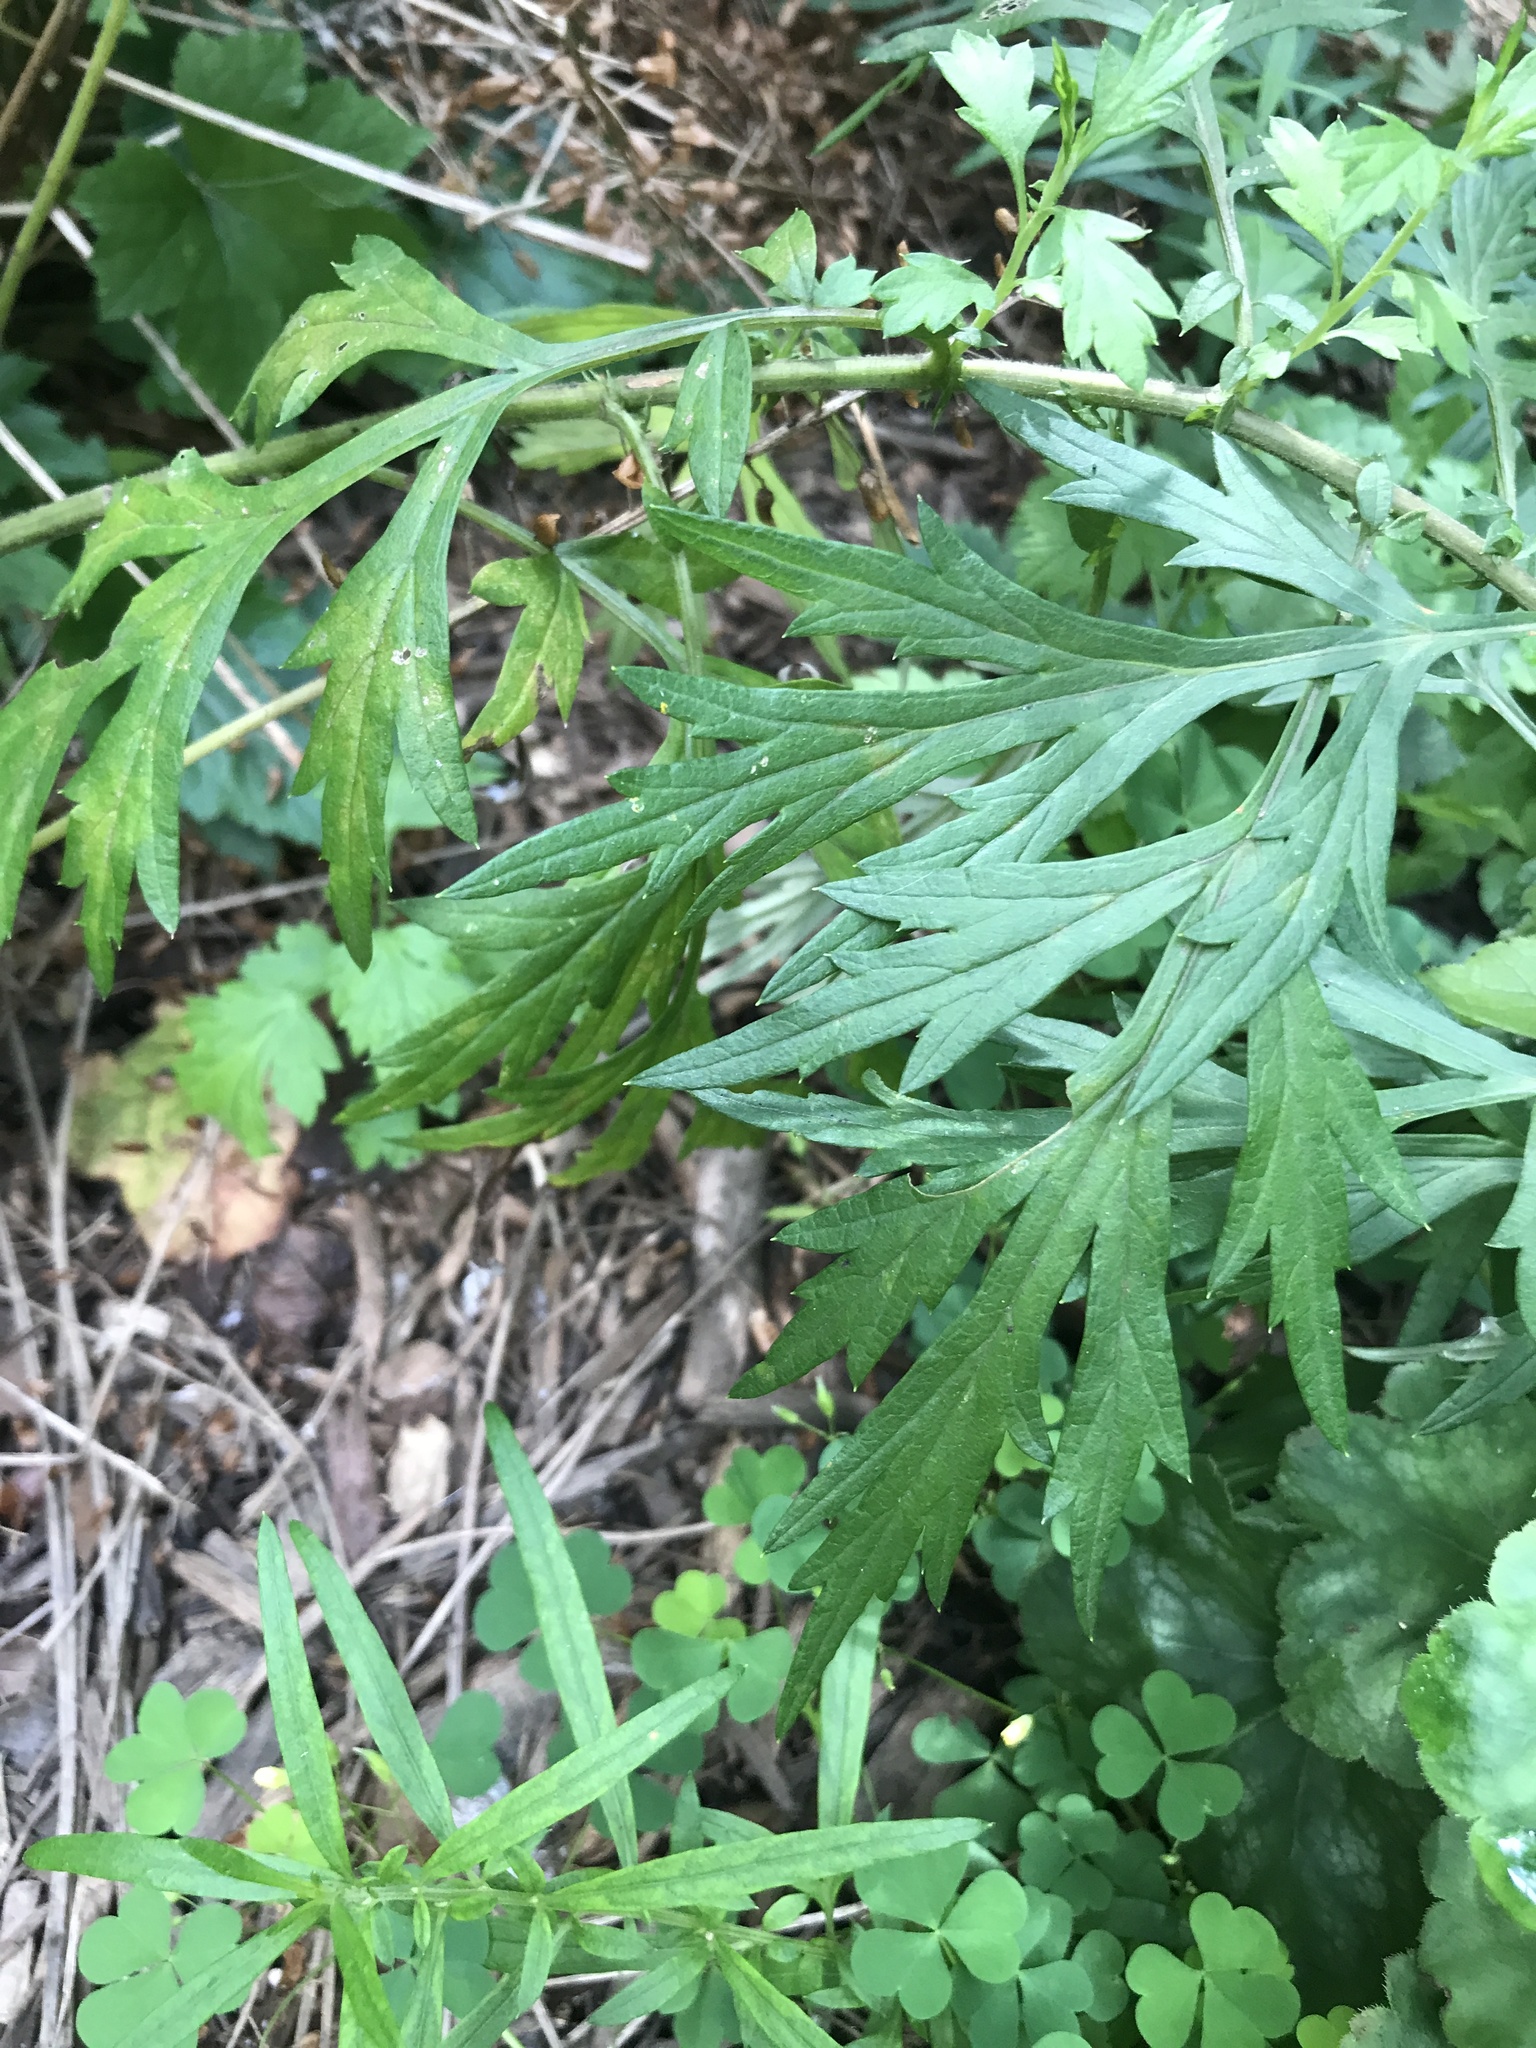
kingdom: Plantae
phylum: Tracheophyta
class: Magnoliopsida
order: Asterales
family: Asteraceae
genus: Artemisia
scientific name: Artemisia vulgaris
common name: Mugwort
